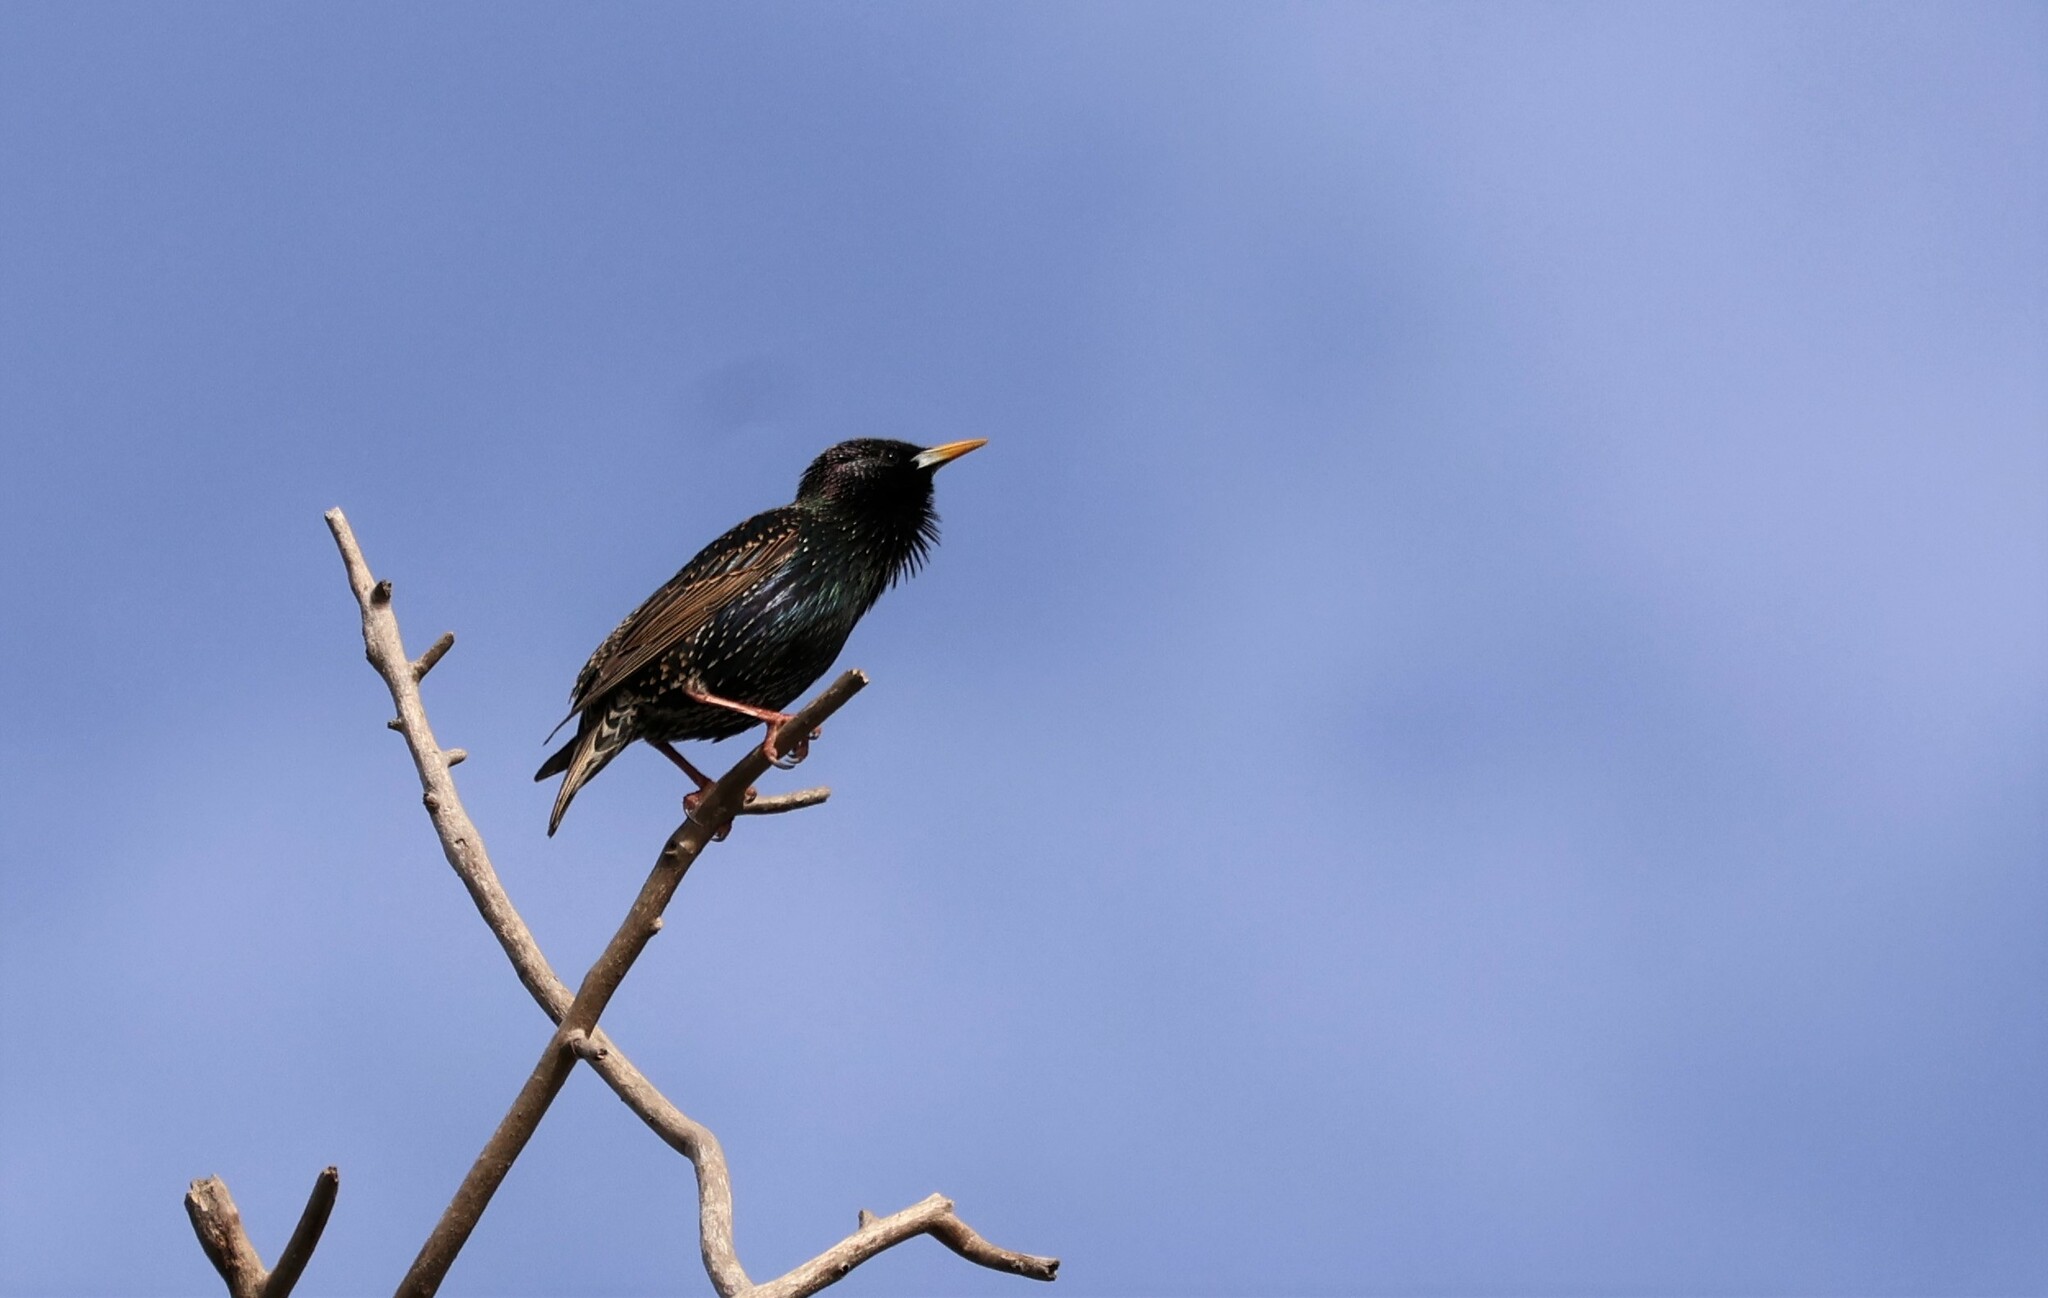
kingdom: Animalia
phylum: Chordata
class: Aves
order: Passeriformes
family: Sturnidae
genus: Sturnus
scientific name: Sturnus vulgaris
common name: Common starling
